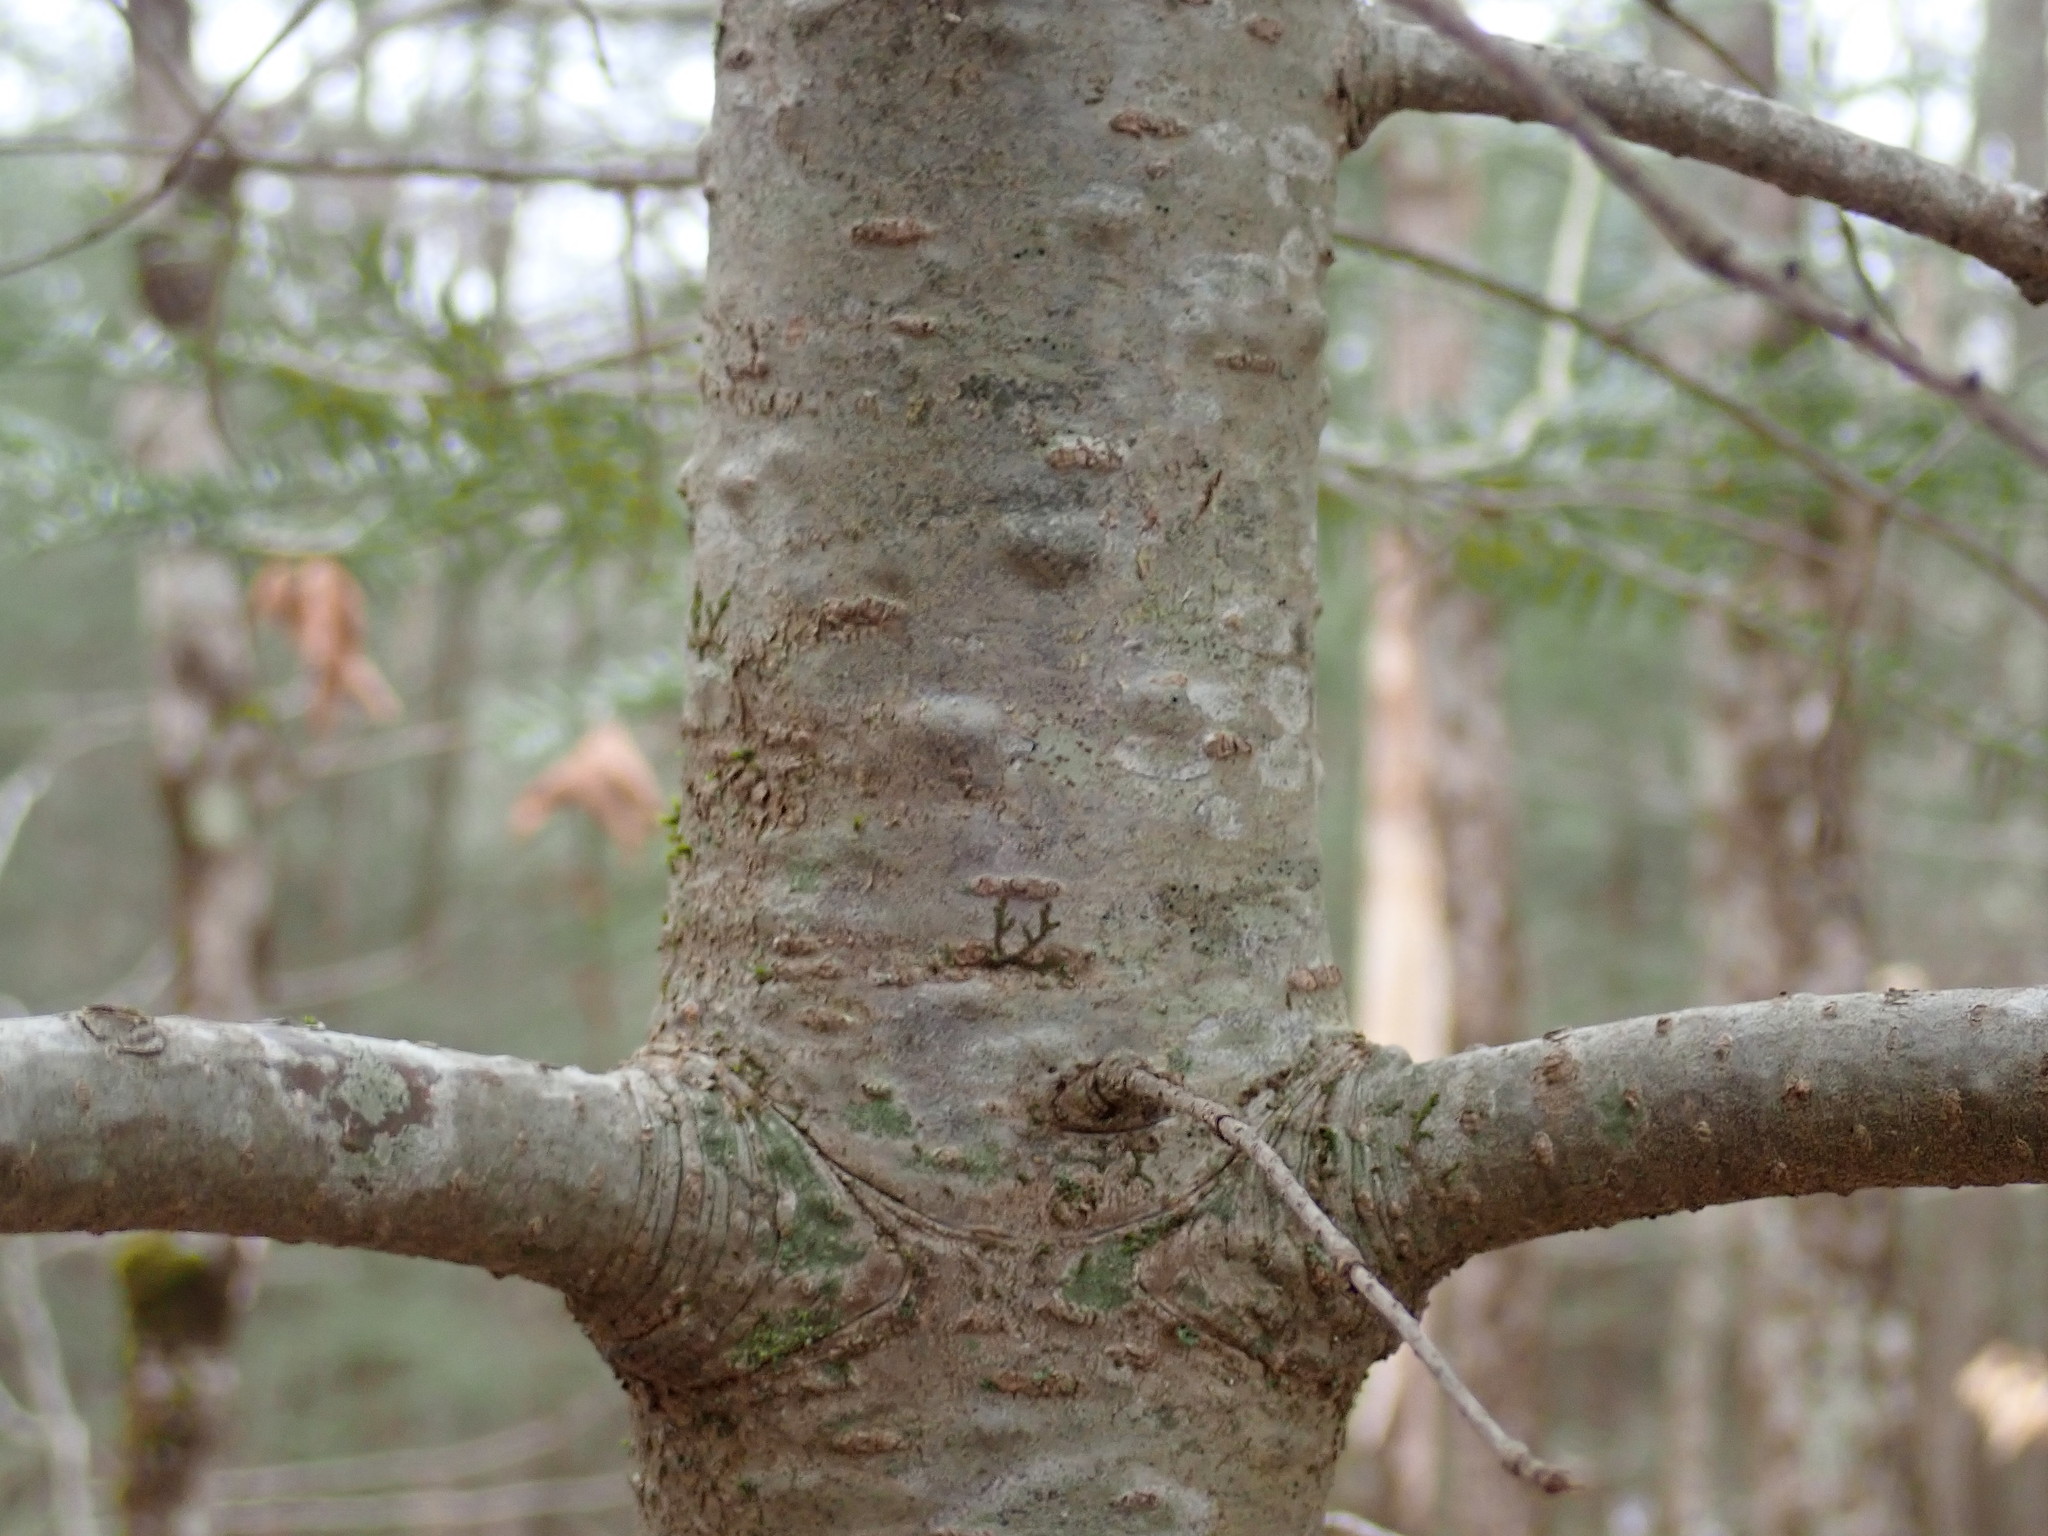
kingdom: Plantae
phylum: Tracheophyta
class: Pinopsida
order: Pinales
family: Pinaceae
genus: Abies
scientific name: Abies balsamea
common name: Balsam fir
